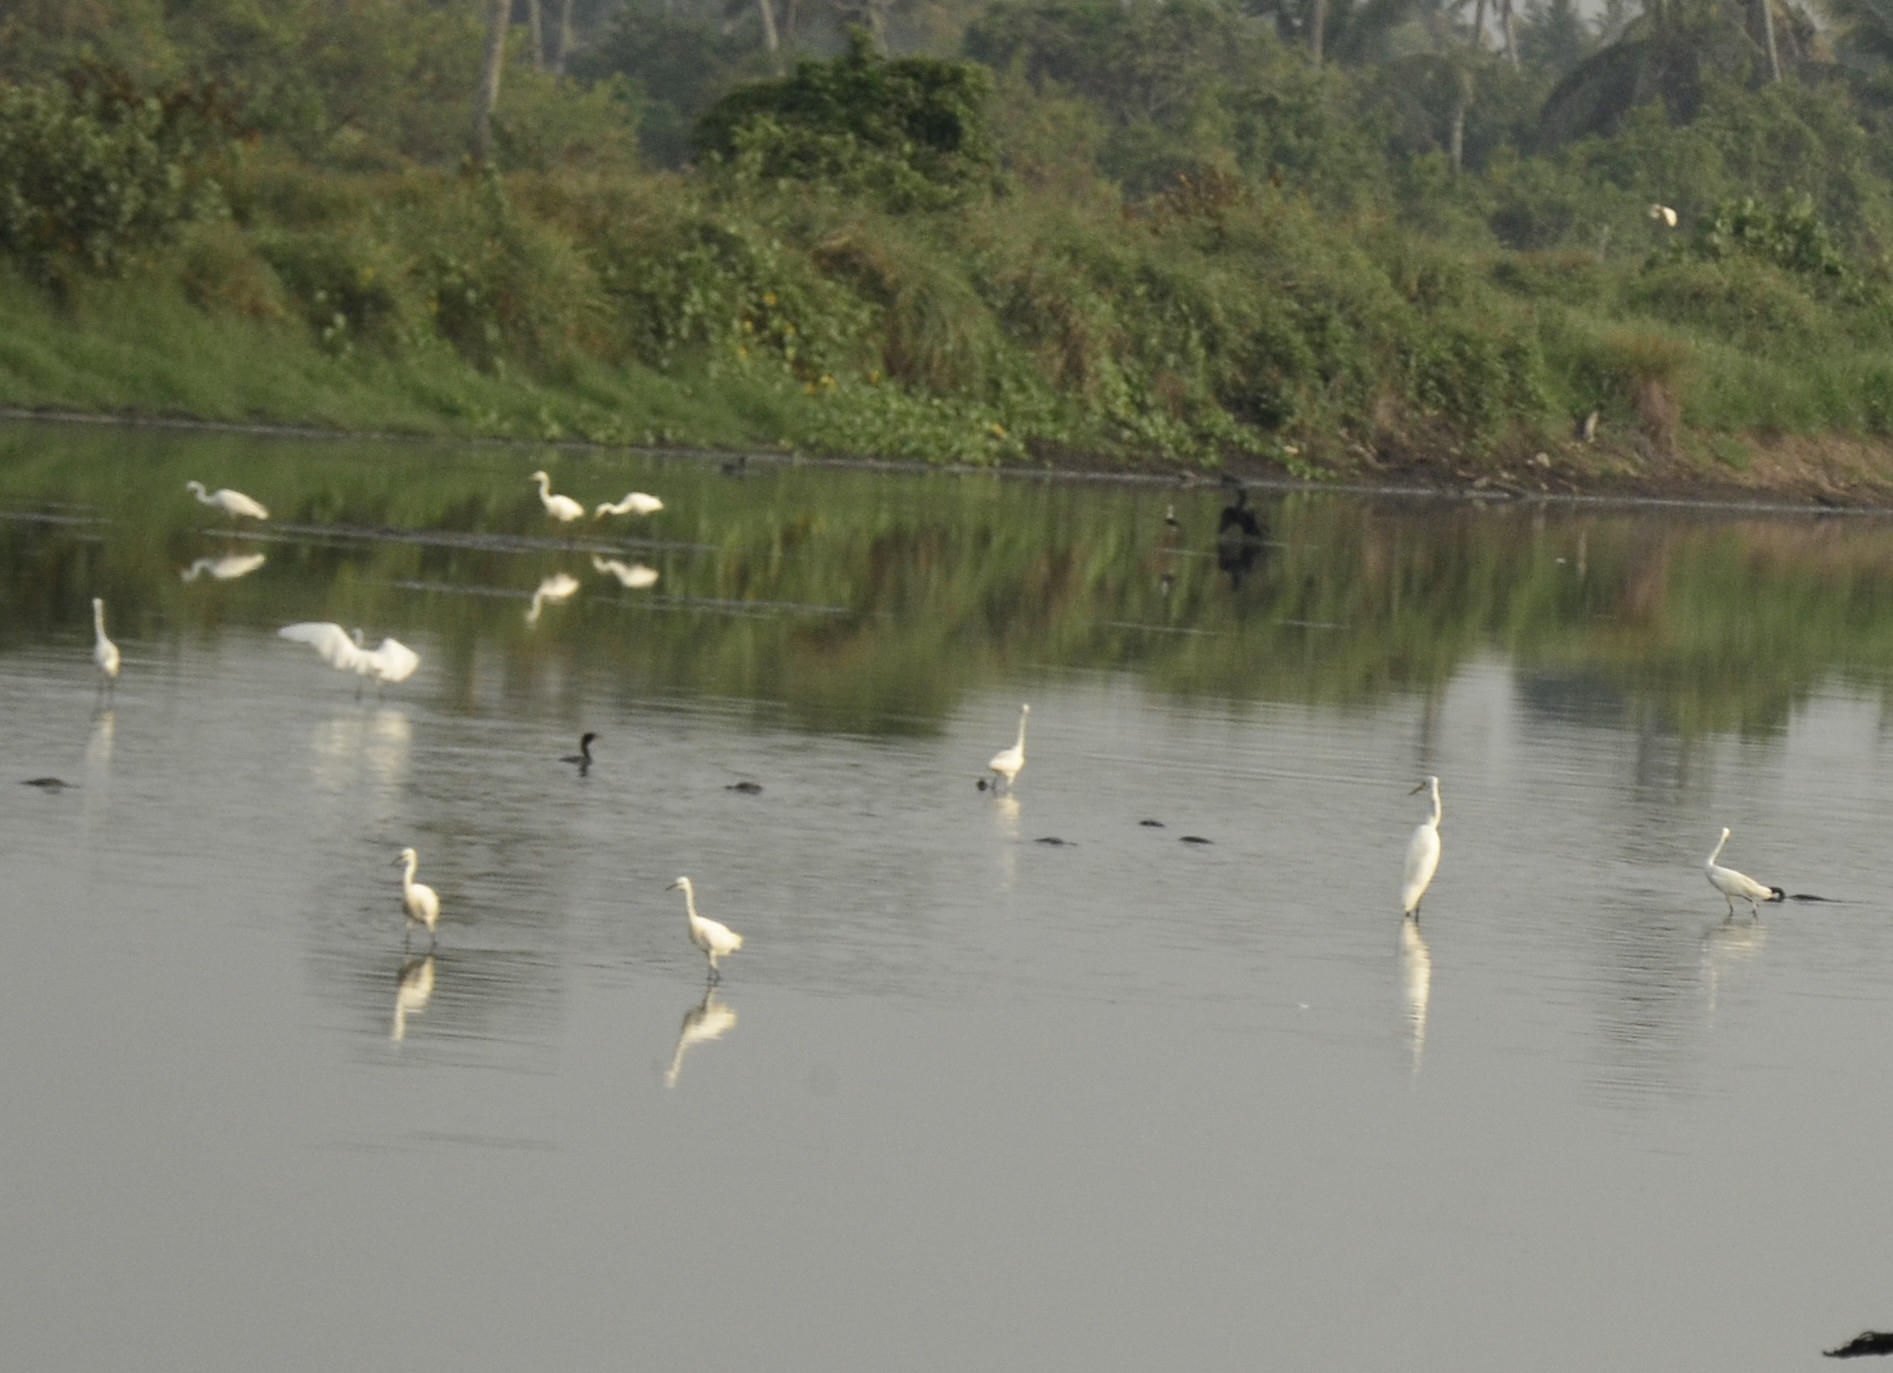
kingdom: Animalia
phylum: Chordata
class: Aves
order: Pelecaniformes
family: Ardeidae
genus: Egretta
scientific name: Egretta garzetta
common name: Little egret
